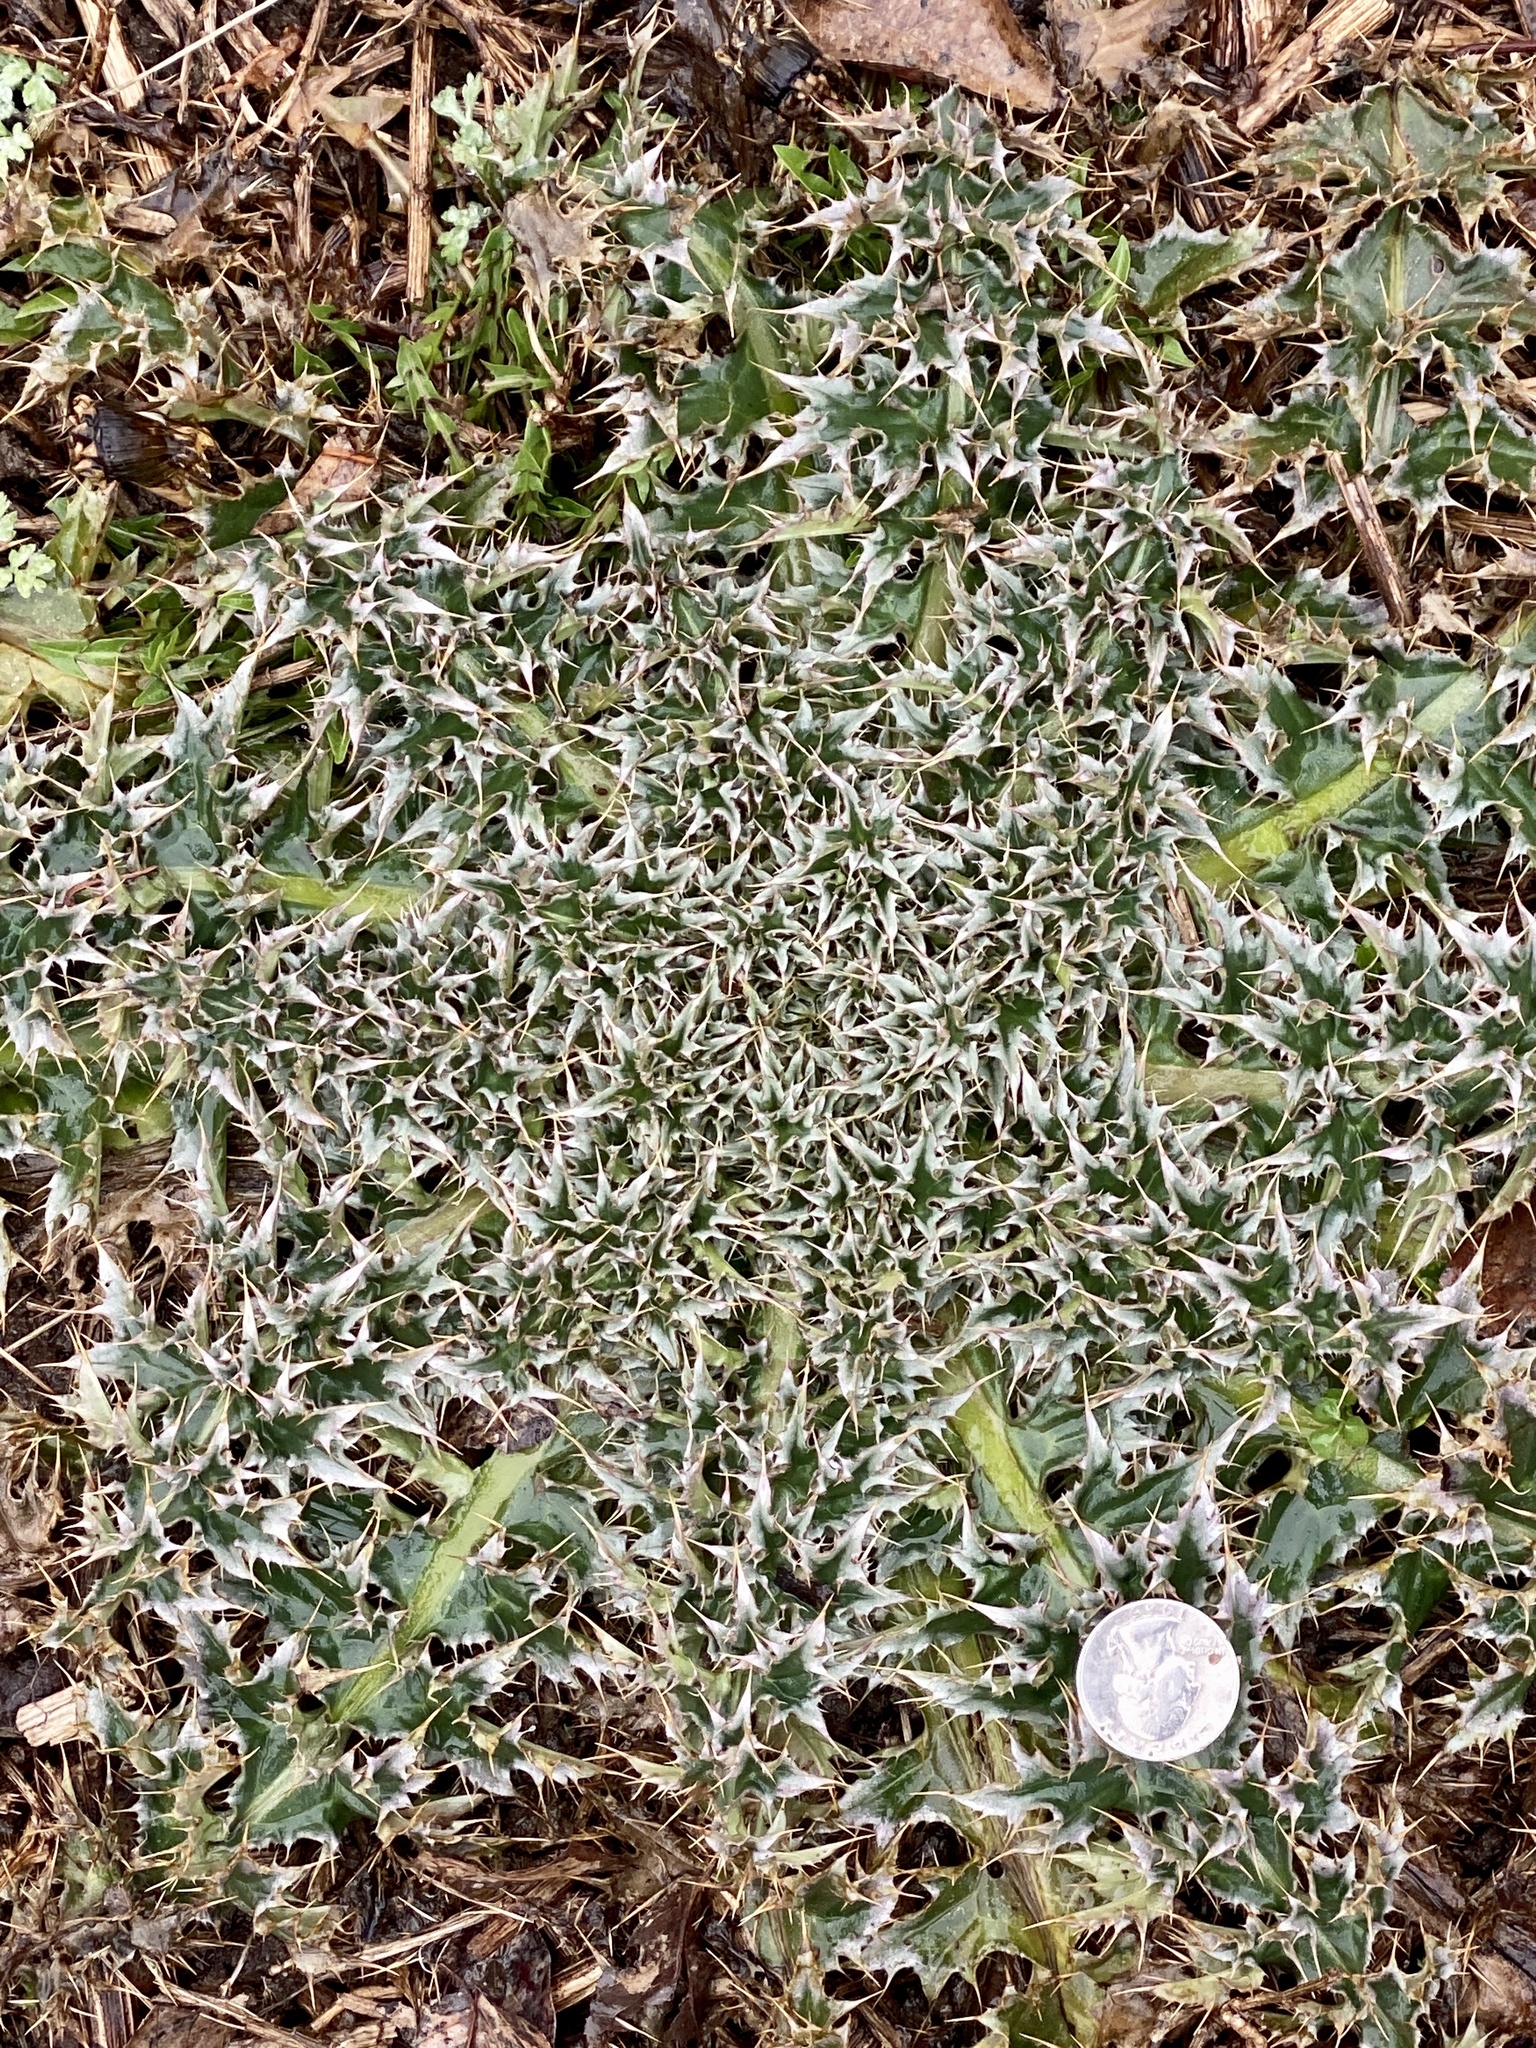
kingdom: Plantae
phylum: Tracheophyta
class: Magnoliopsida
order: Asterales
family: Asteraceae
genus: Carduus
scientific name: Carduus nutans
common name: Musk thistle
